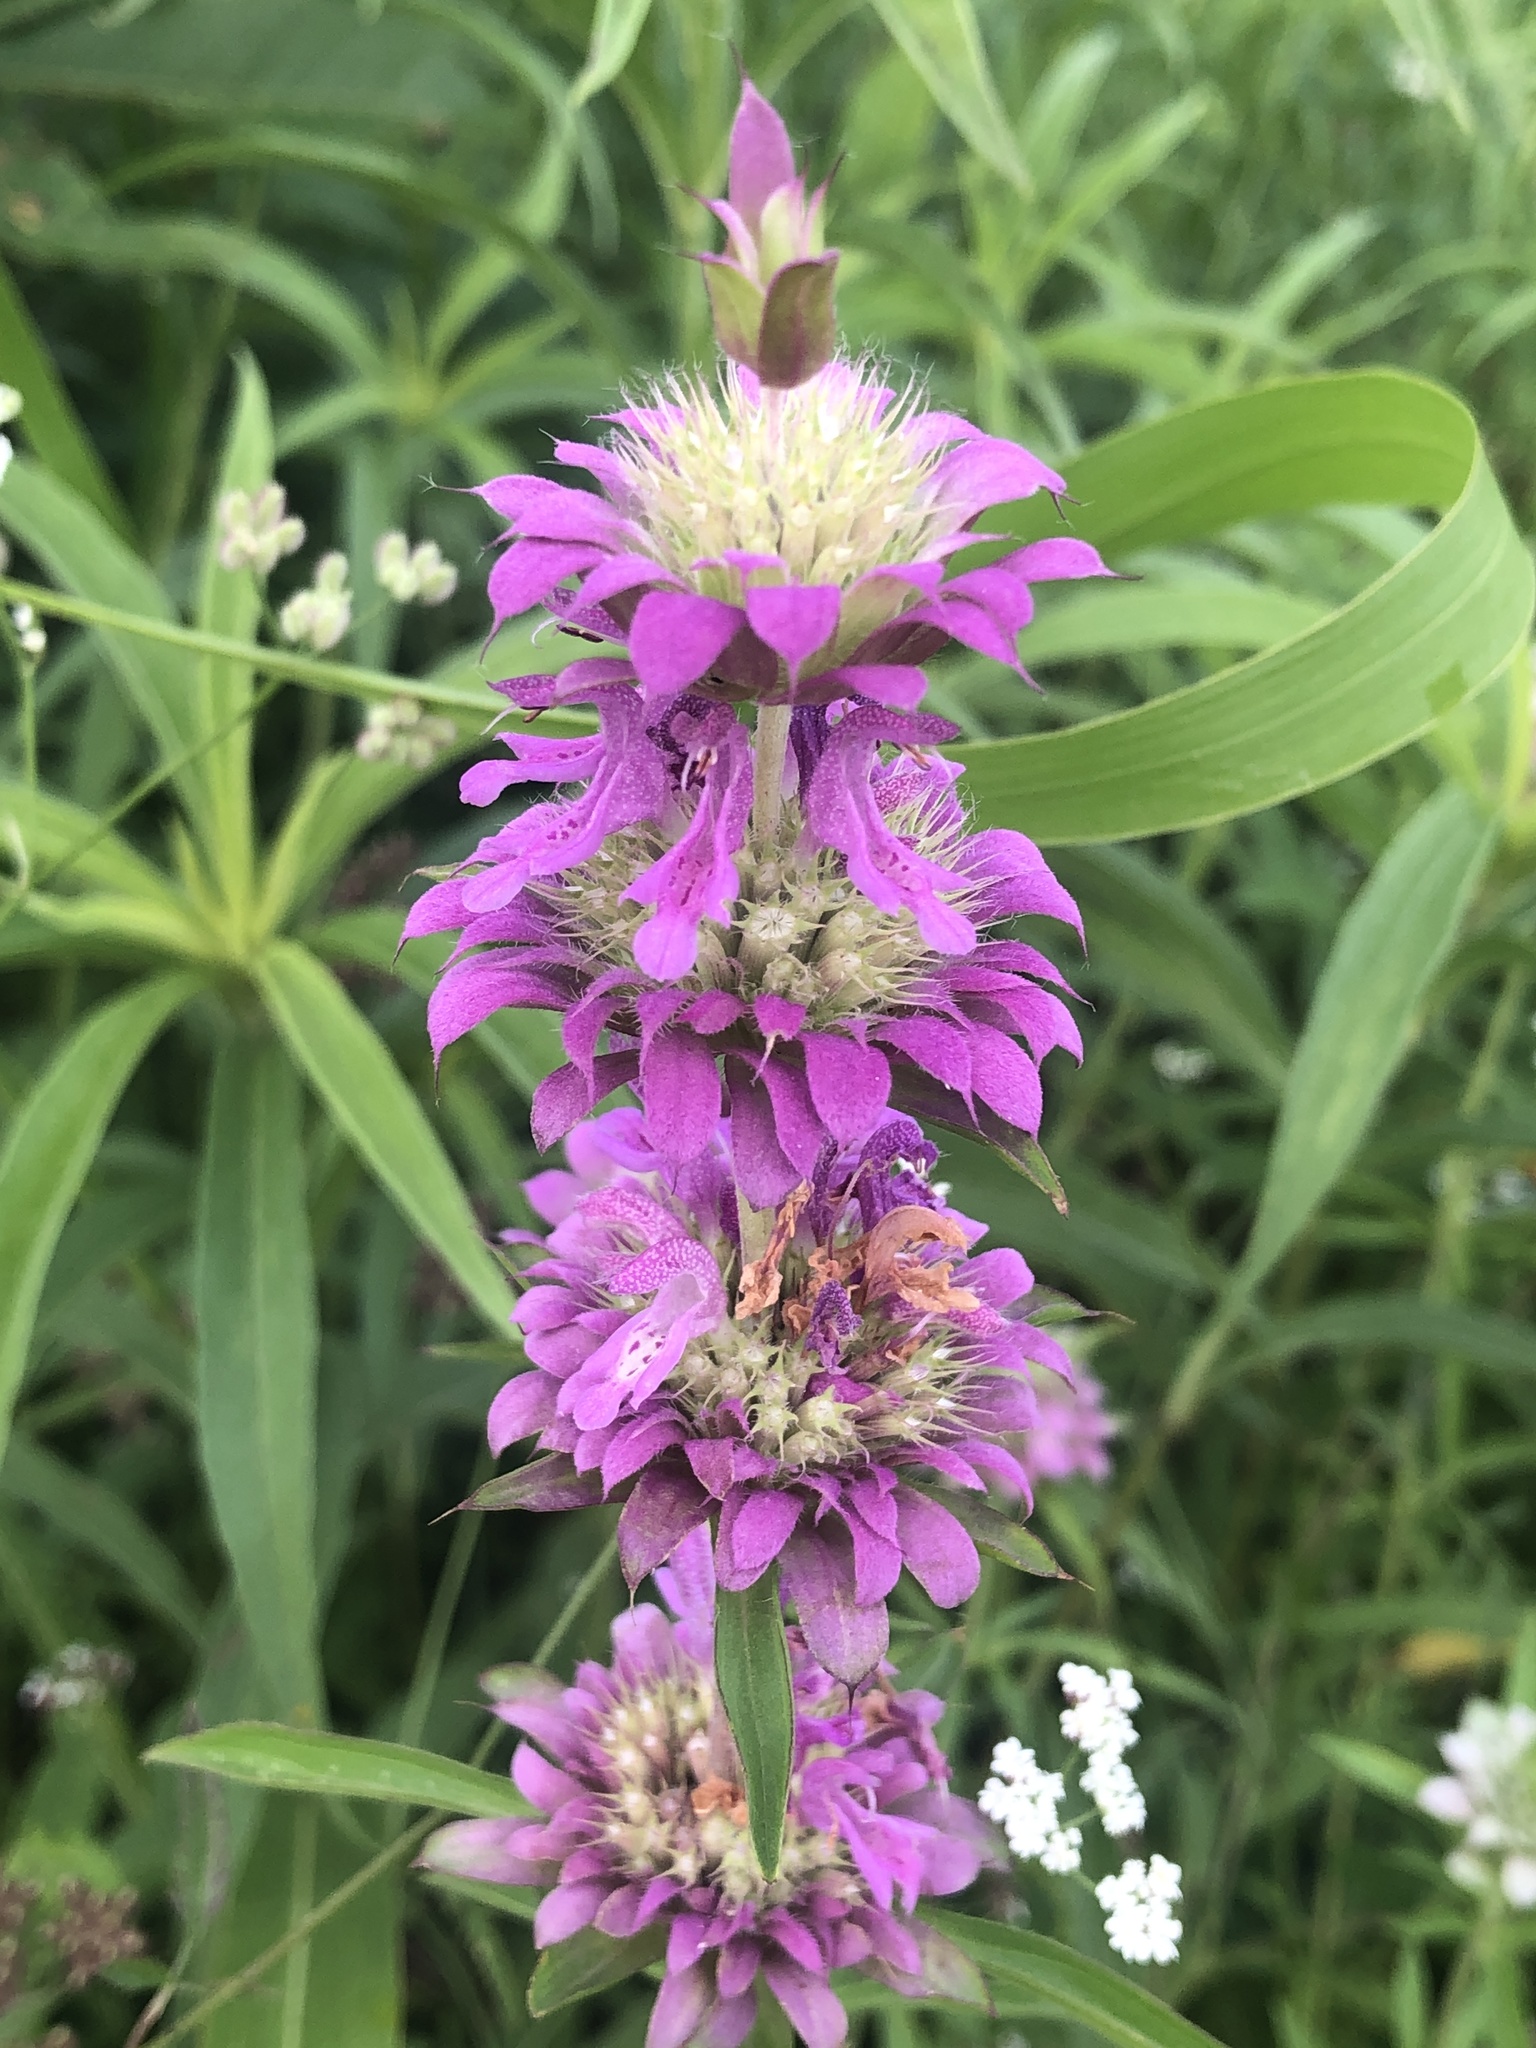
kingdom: Plantae
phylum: Tracheophyta
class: Magnoliopsida
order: Lamiales
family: Lamiaceae
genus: Monarda
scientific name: Monarda citriodora
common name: Lemon beebalm
